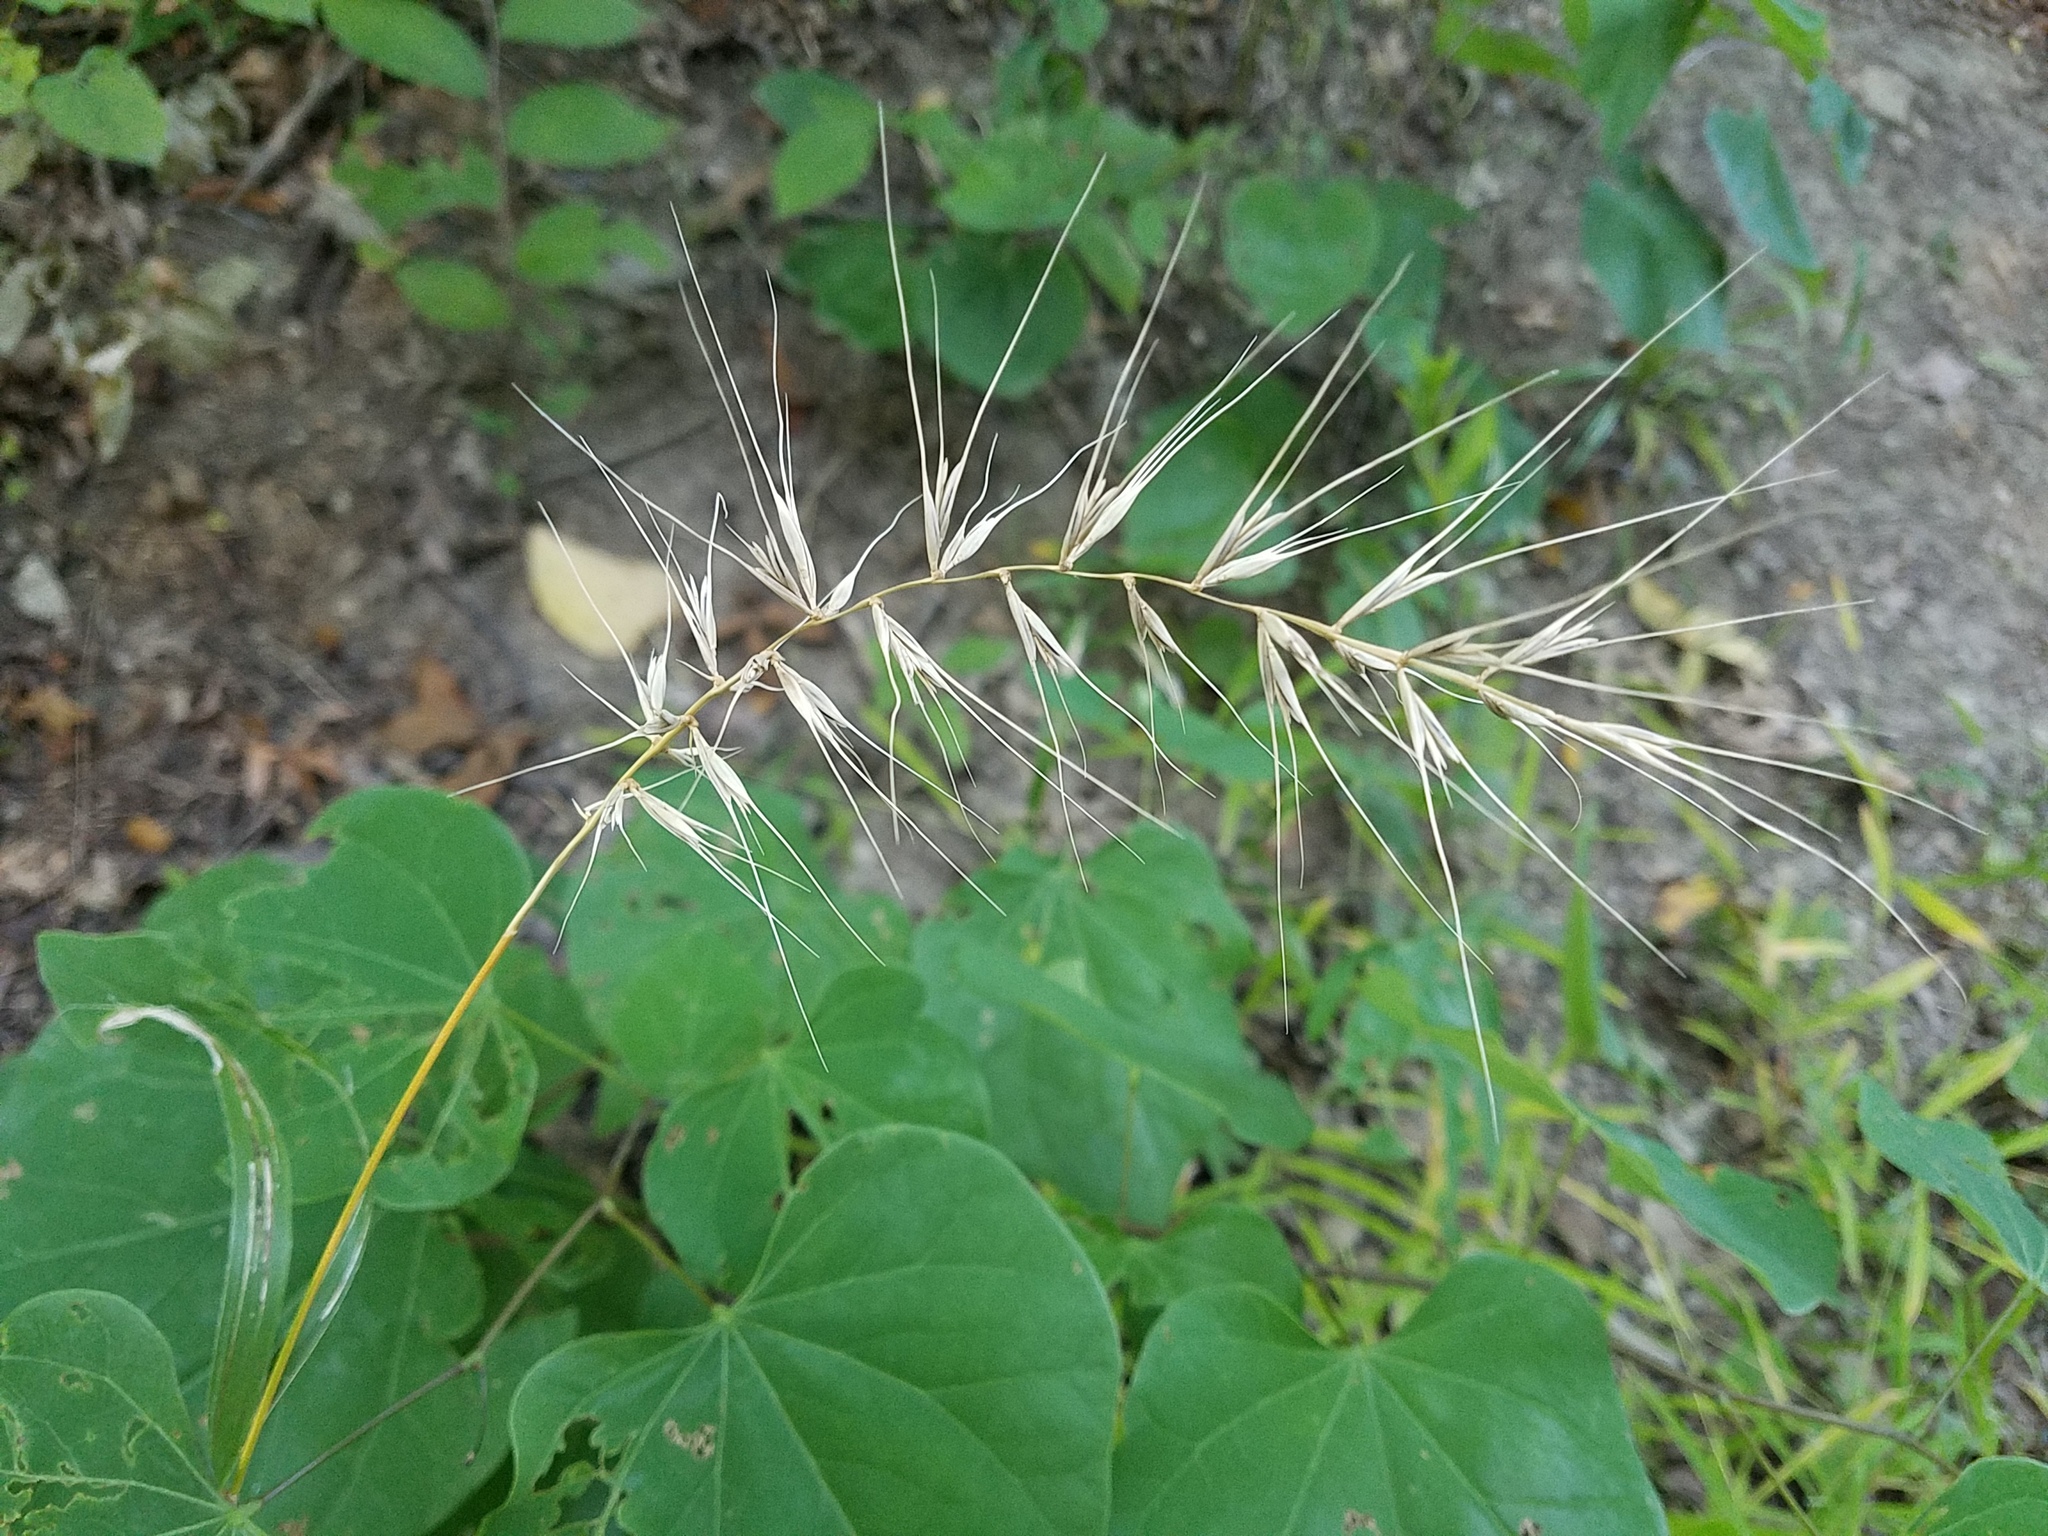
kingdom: Plantae
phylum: Tracheophyta
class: Liliopsida
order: Poales
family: Poaceae
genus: Elymus
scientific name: Elymus hystrix
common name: Bottlebrush grass
